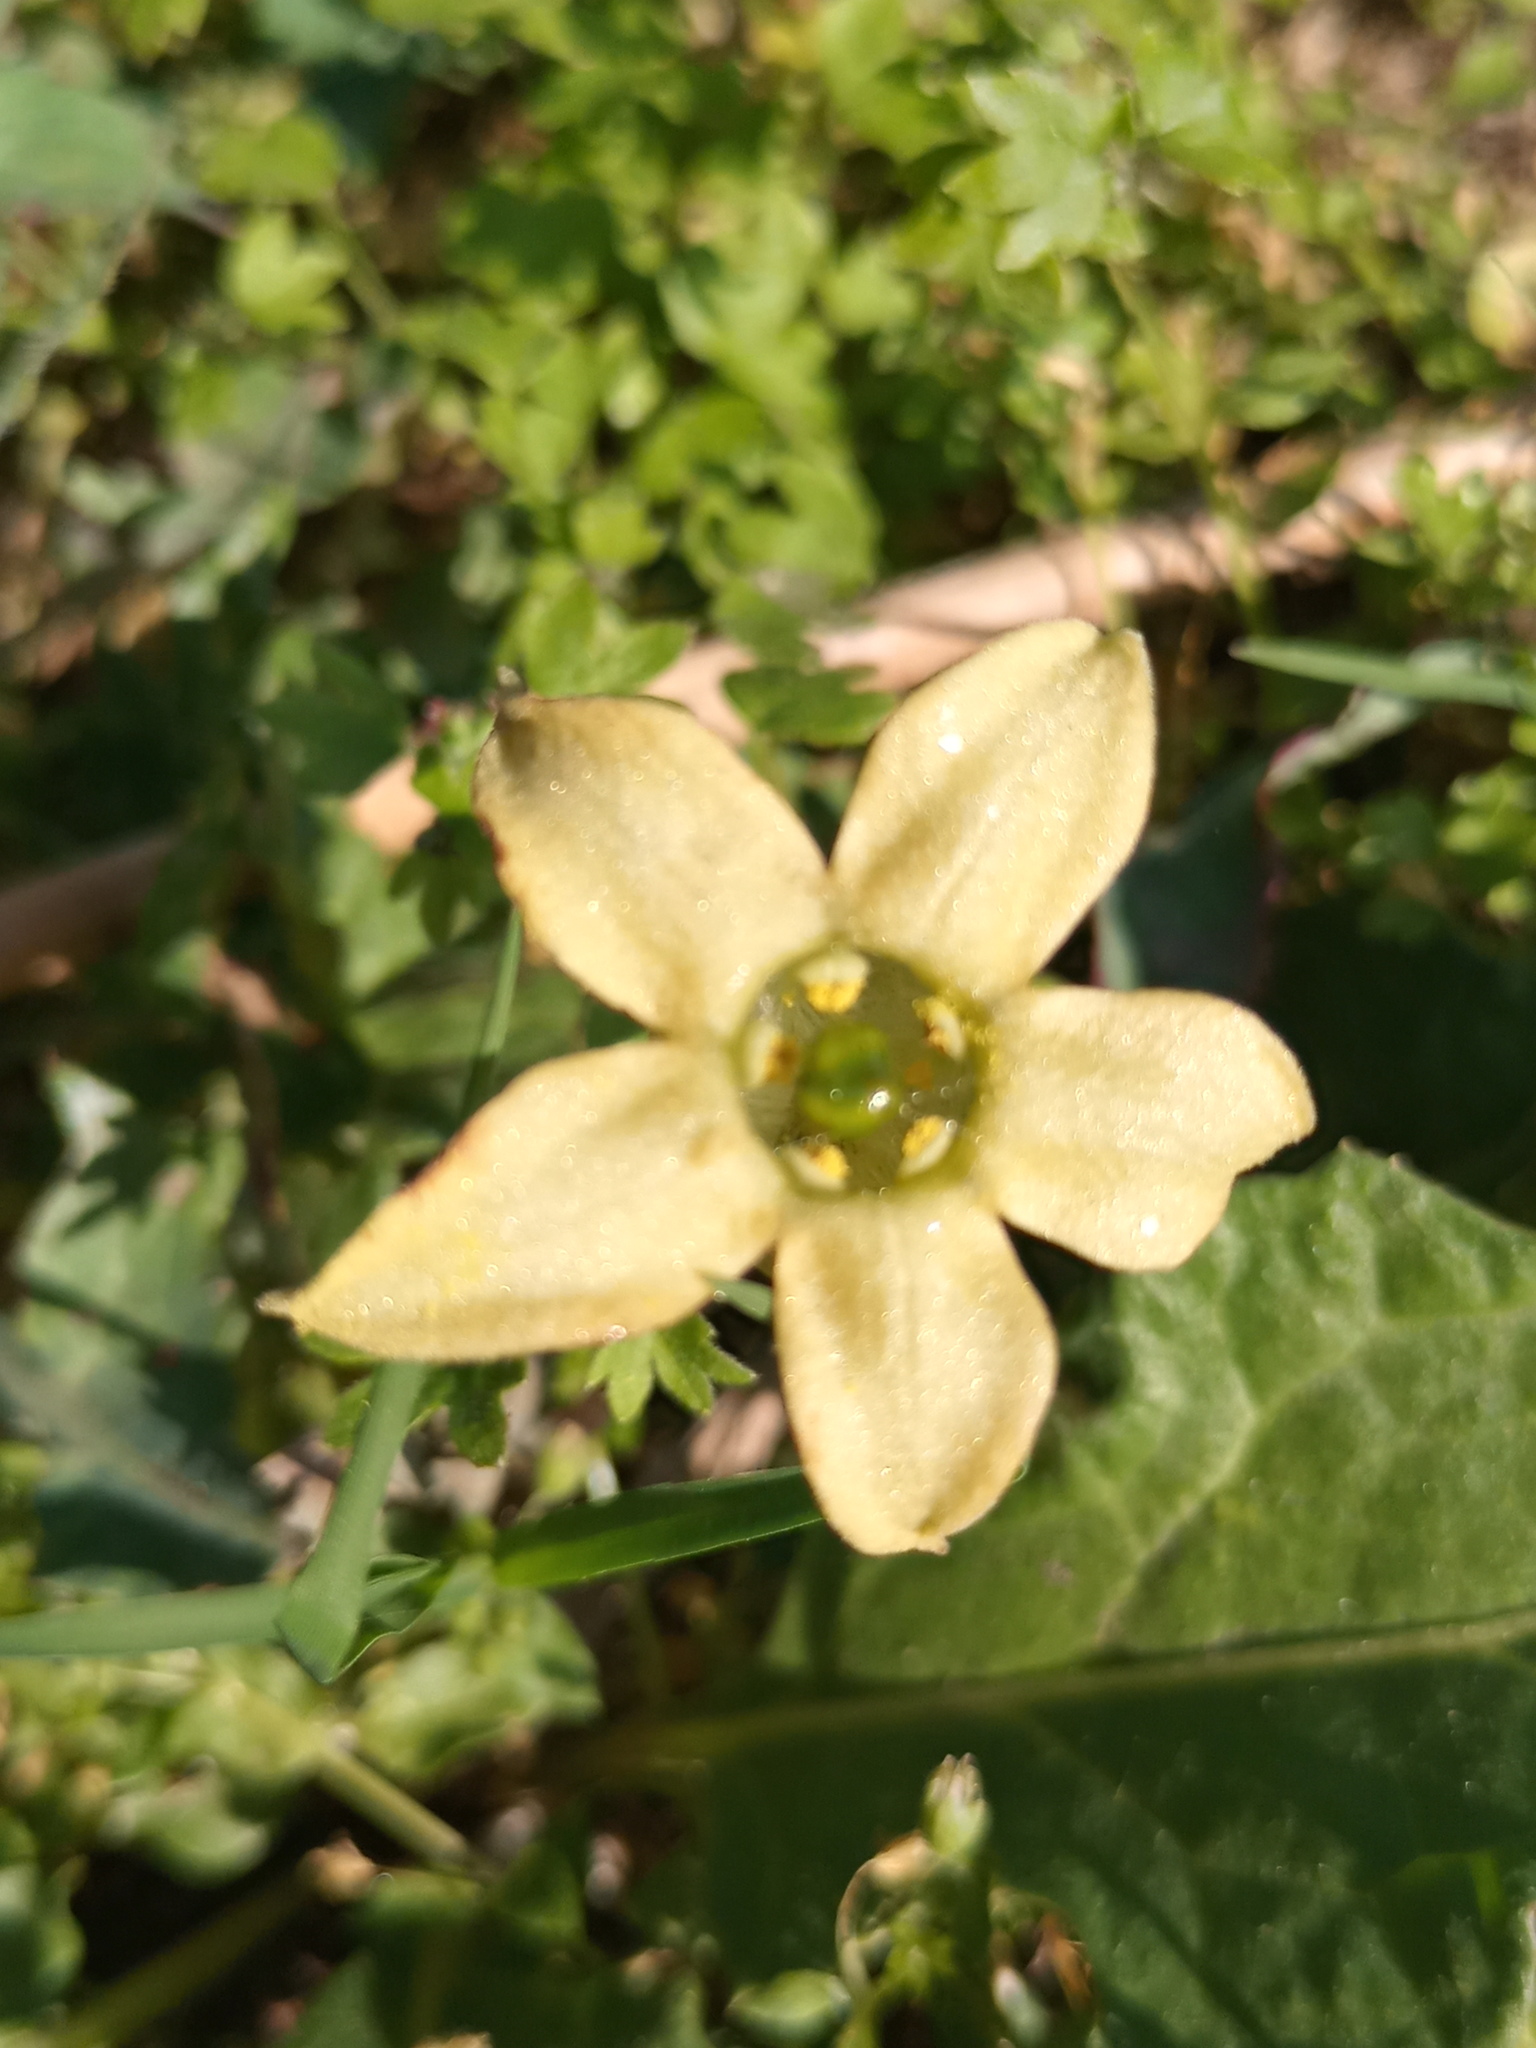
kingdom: Plantae
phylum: Tracheophyta
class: Magnoliopsida
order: Solanales
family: Solanaceae
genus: Jaborosa
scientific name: Jaborosa runcinata
